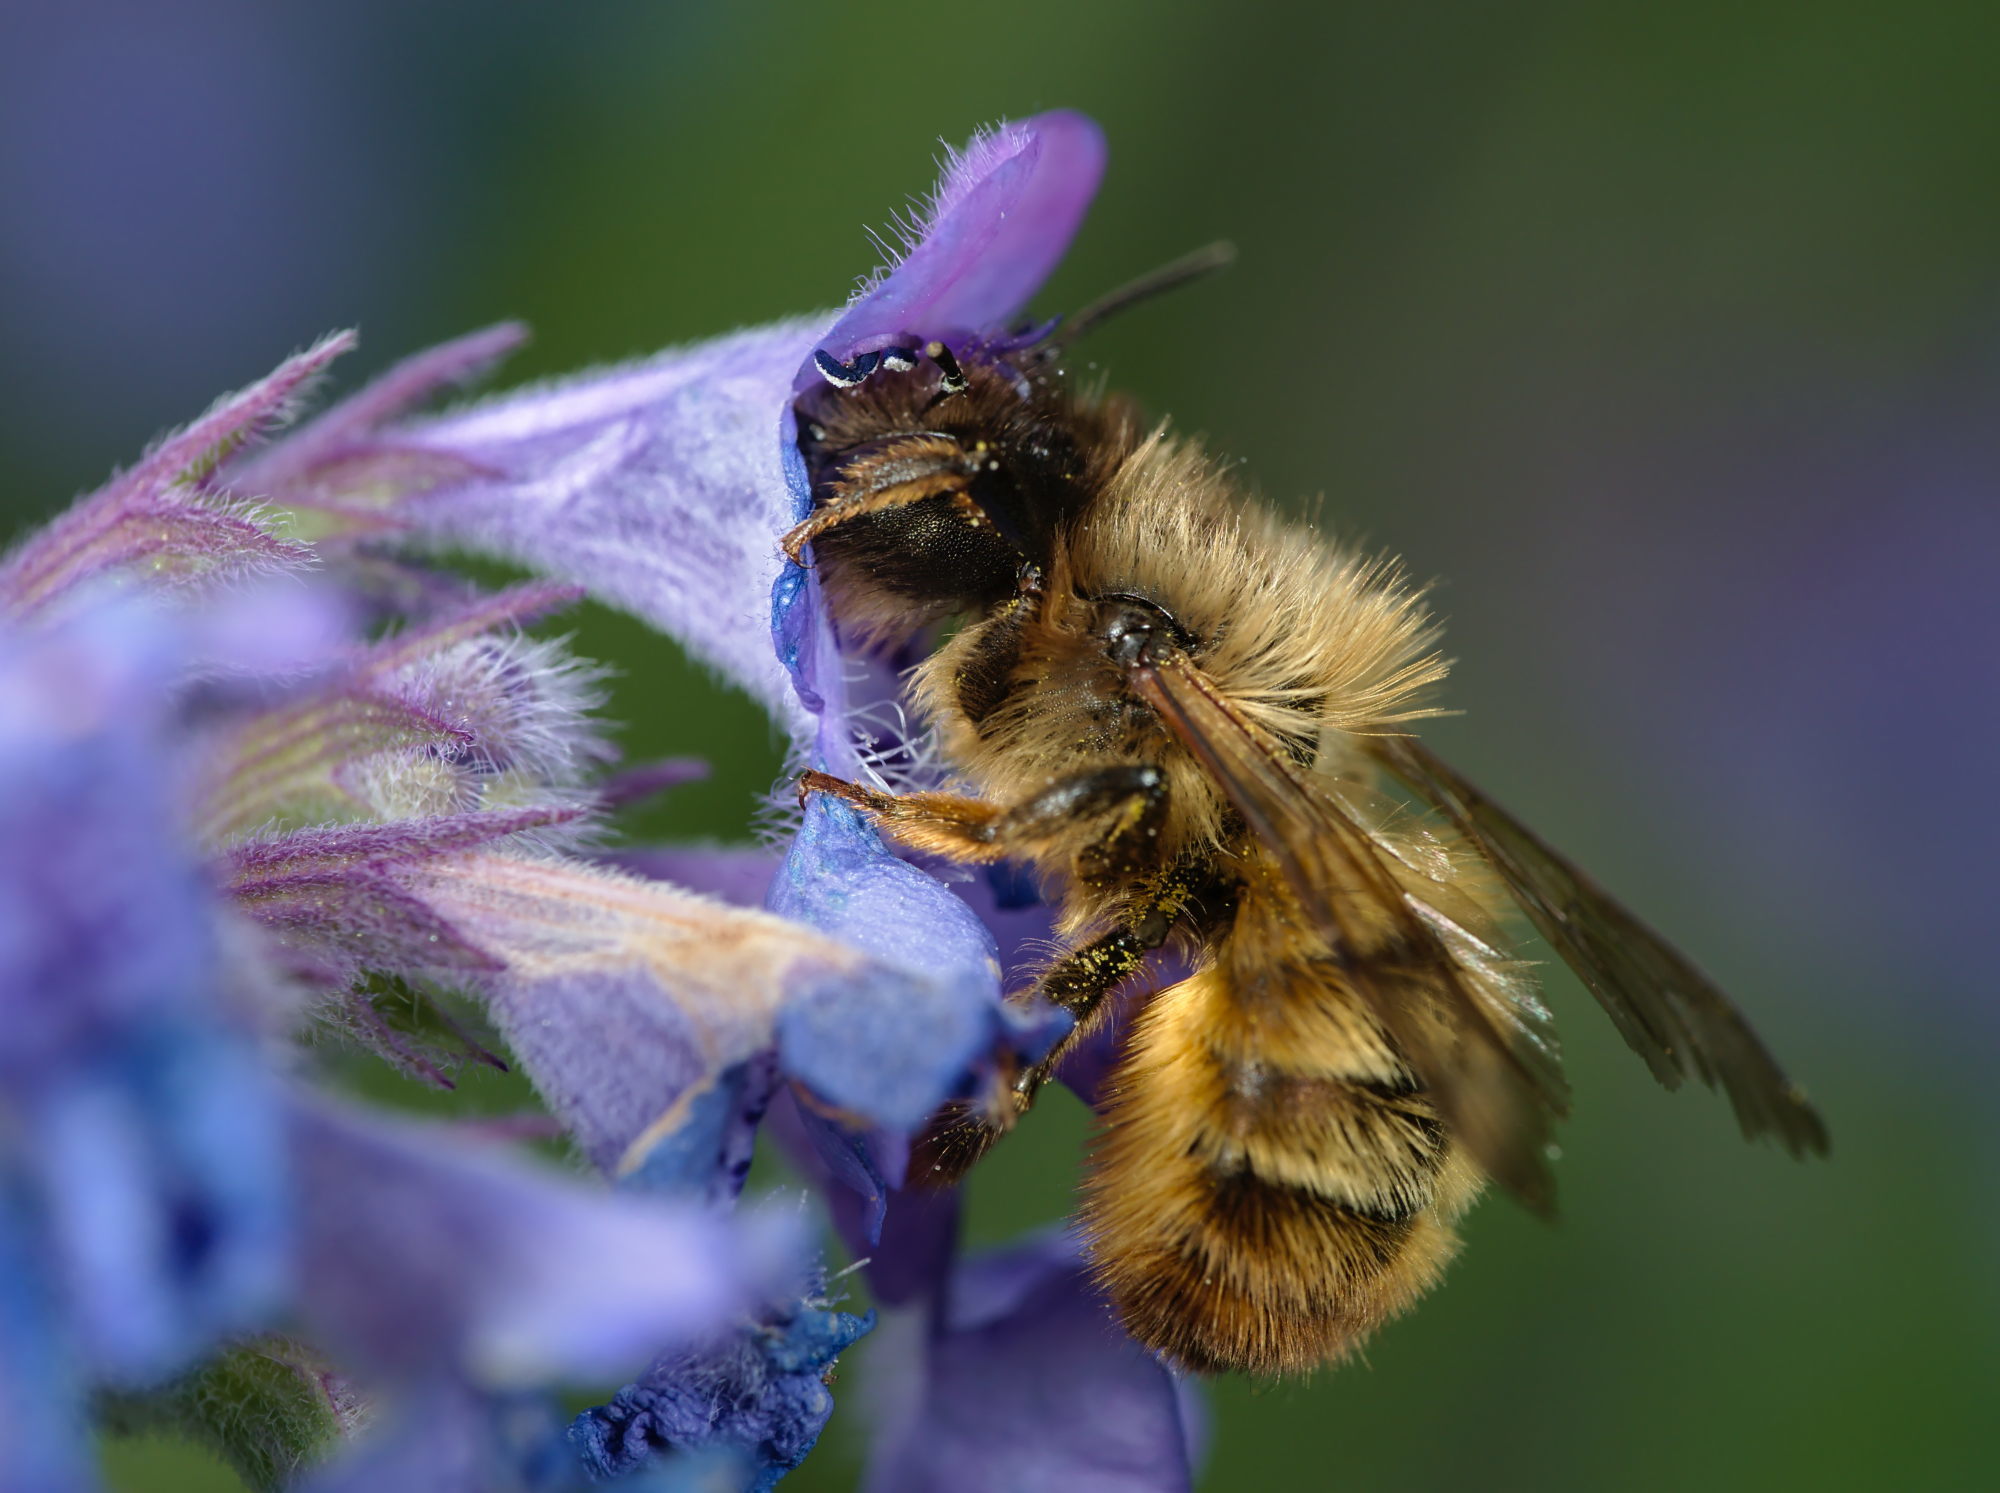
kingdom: Animalia
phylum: Arthropoda
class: Insecta
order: Hymenoptera
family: Megachilidae
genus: Osmia
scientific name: Osmia bicornis
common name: Red mason bee
